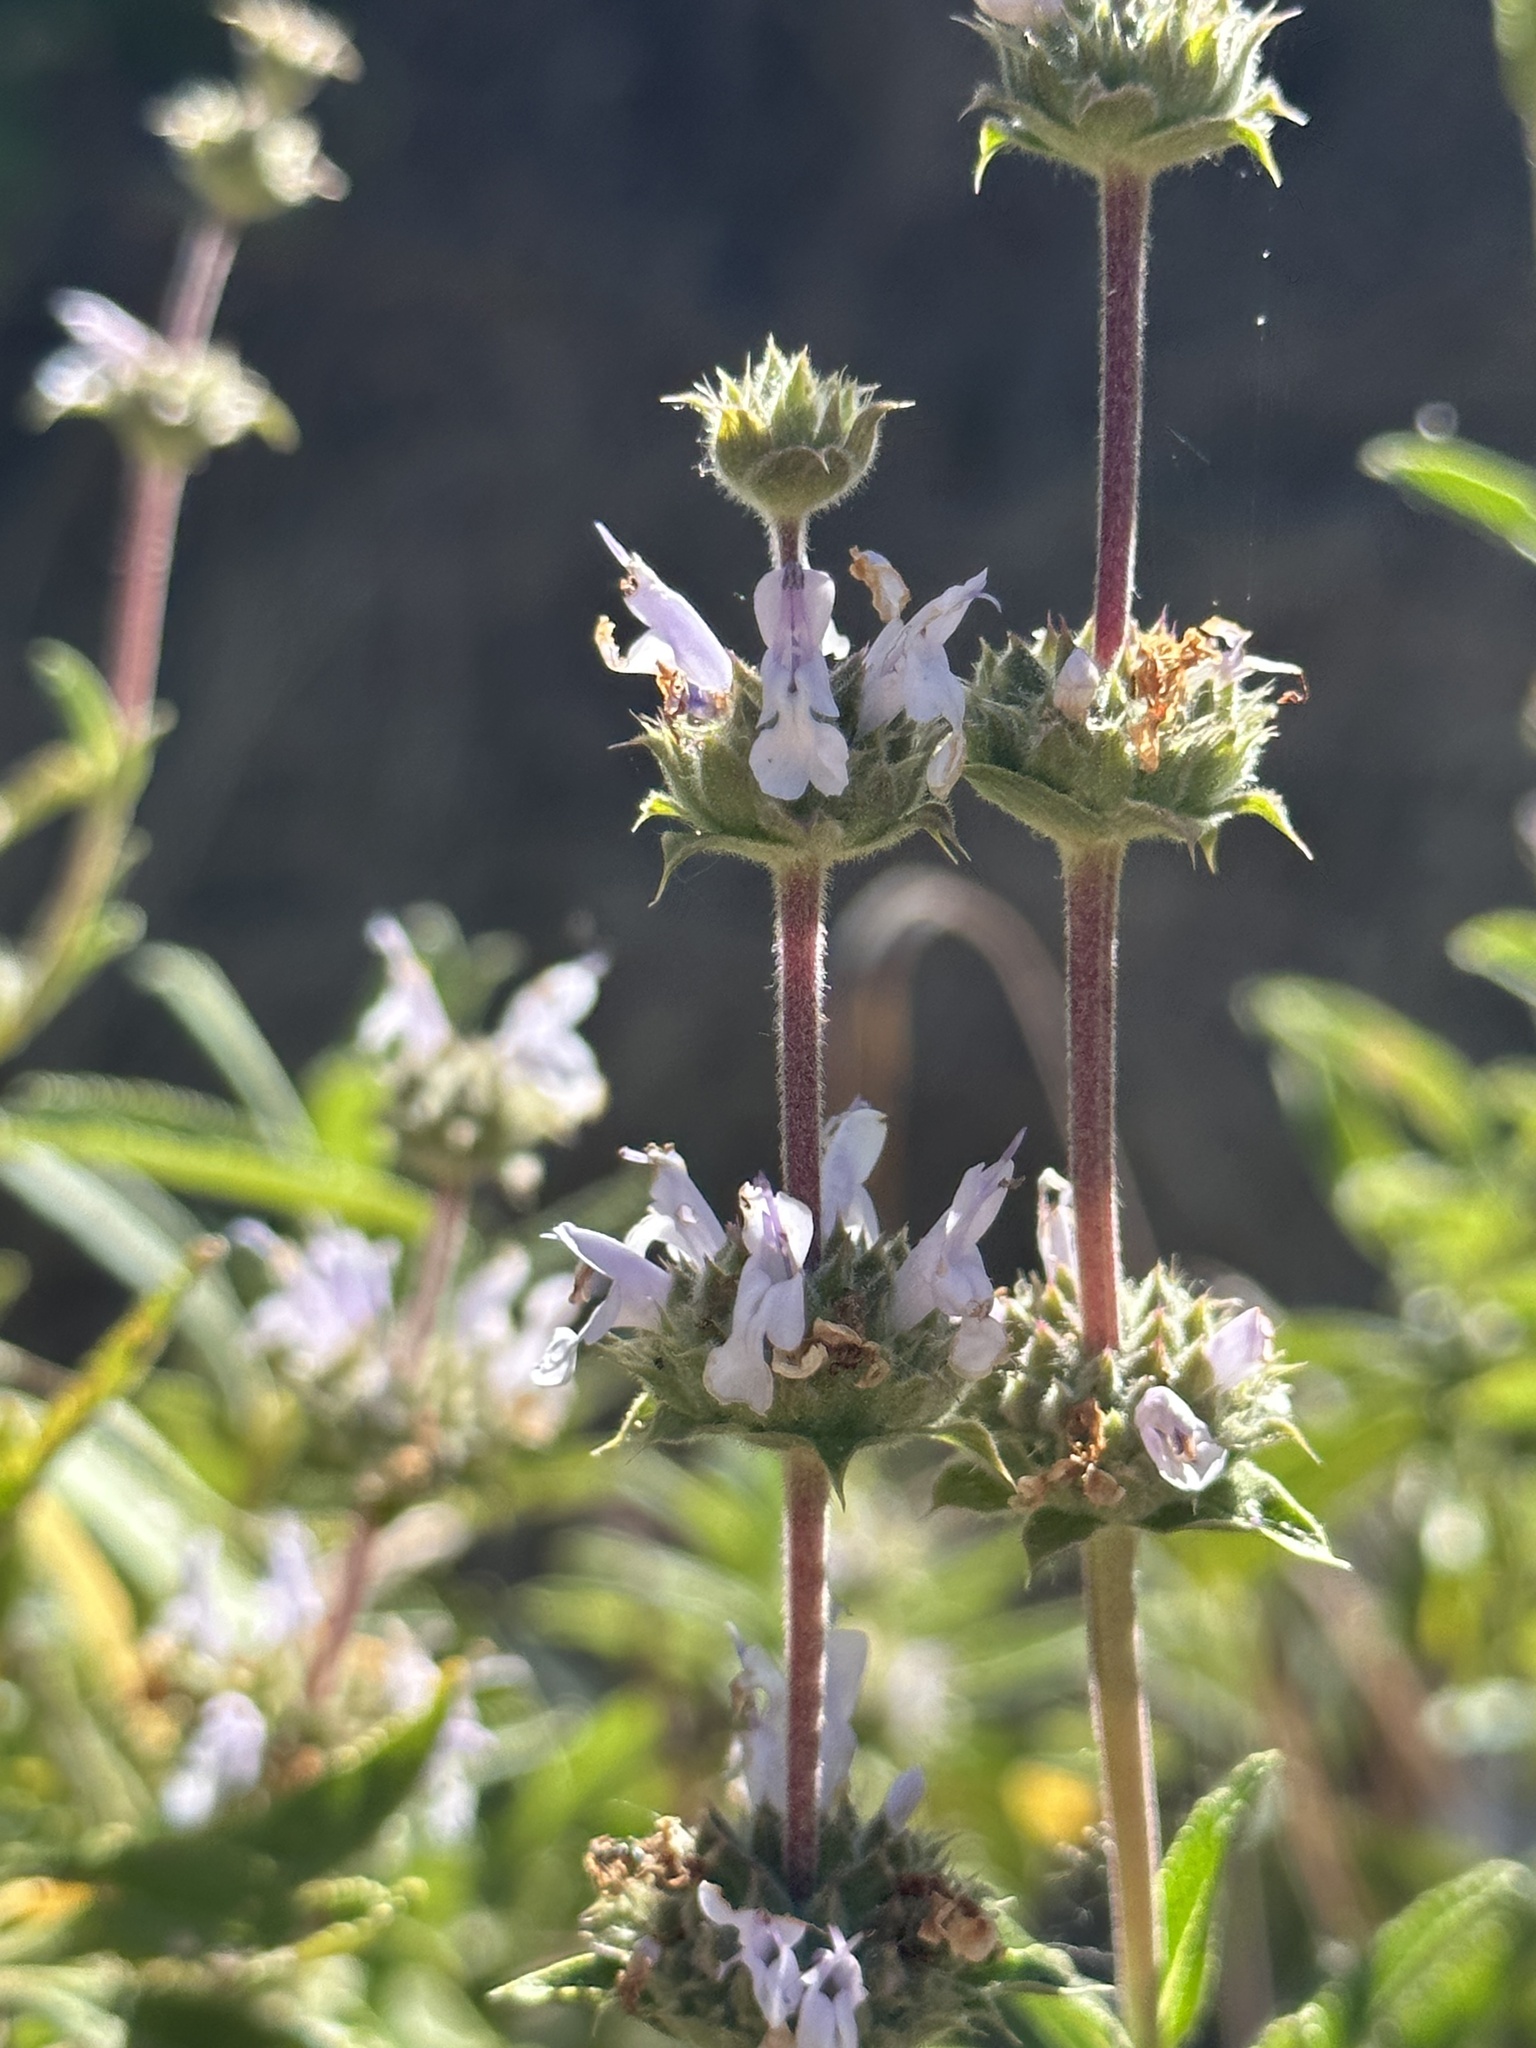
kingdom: Plantae
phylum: Tracheophyta
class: Magnoliopsida
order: Lamiales
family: Lamiaceae
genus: Salvia
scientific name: Salvia mellifera
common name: Black sage
